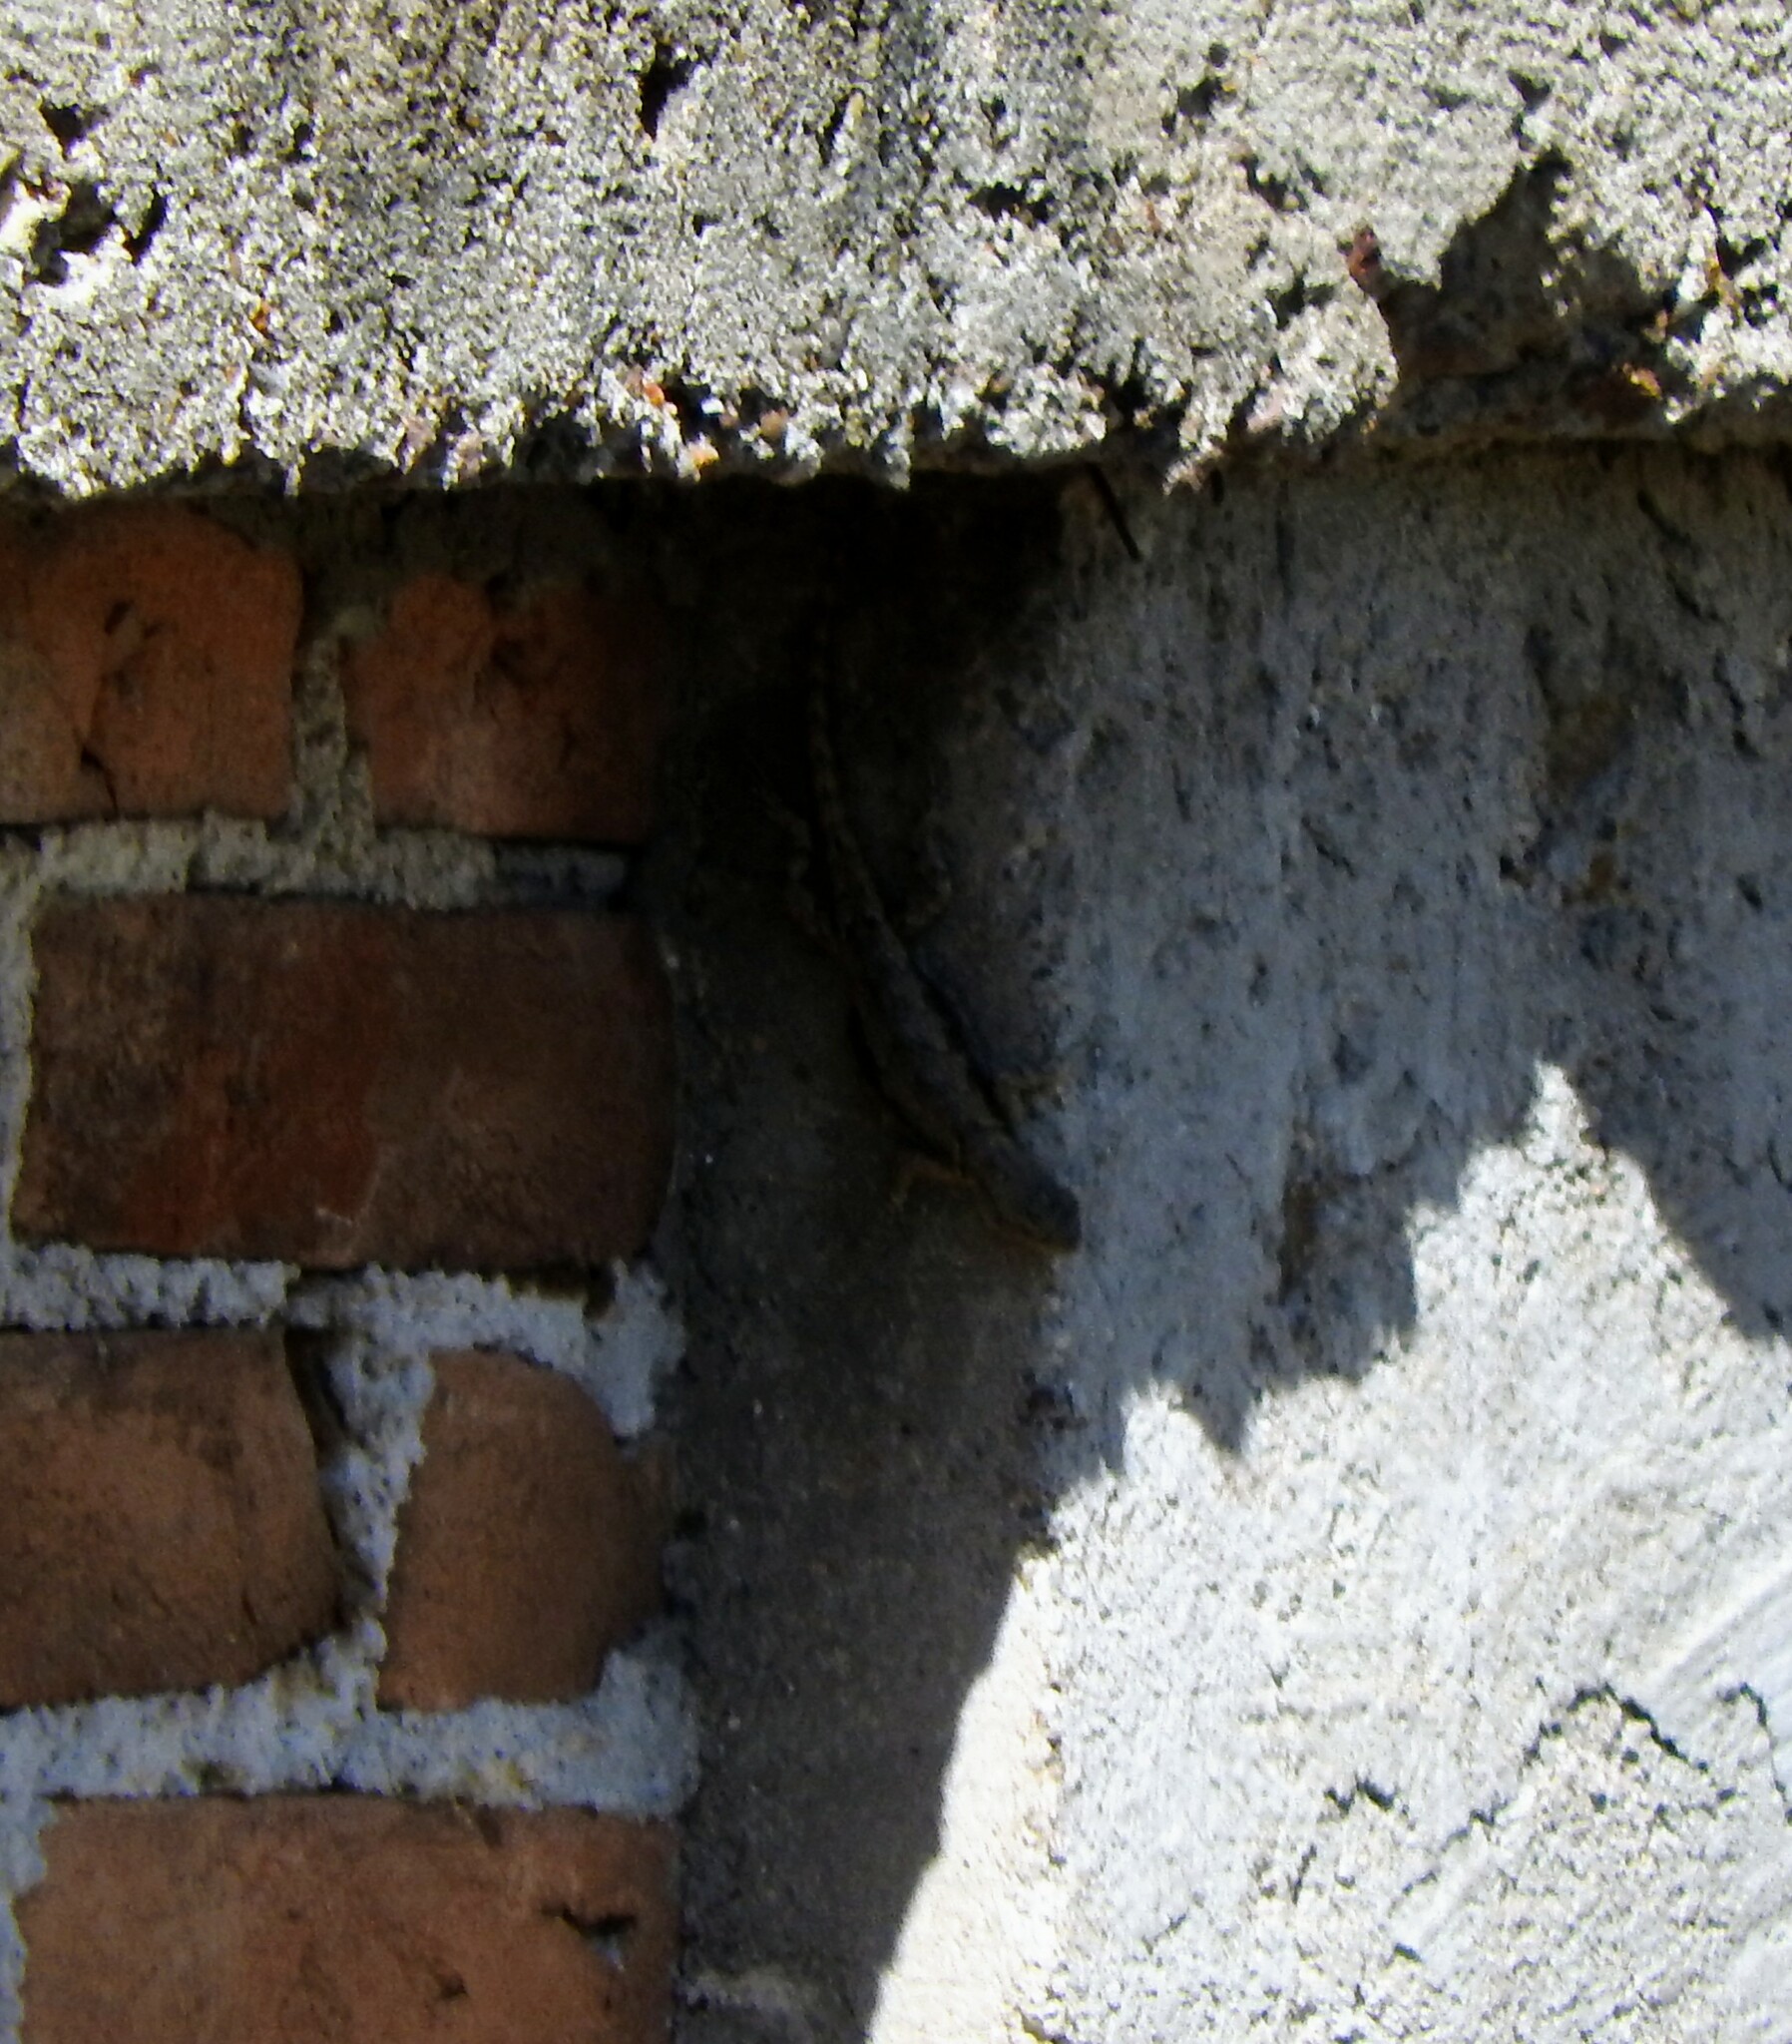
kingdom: Animalia
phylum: Chordata
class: Squamata
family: Phrynosomatidae
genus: Sceloporus
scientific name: Sceloporus grammicus
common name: Mesquite lizard
